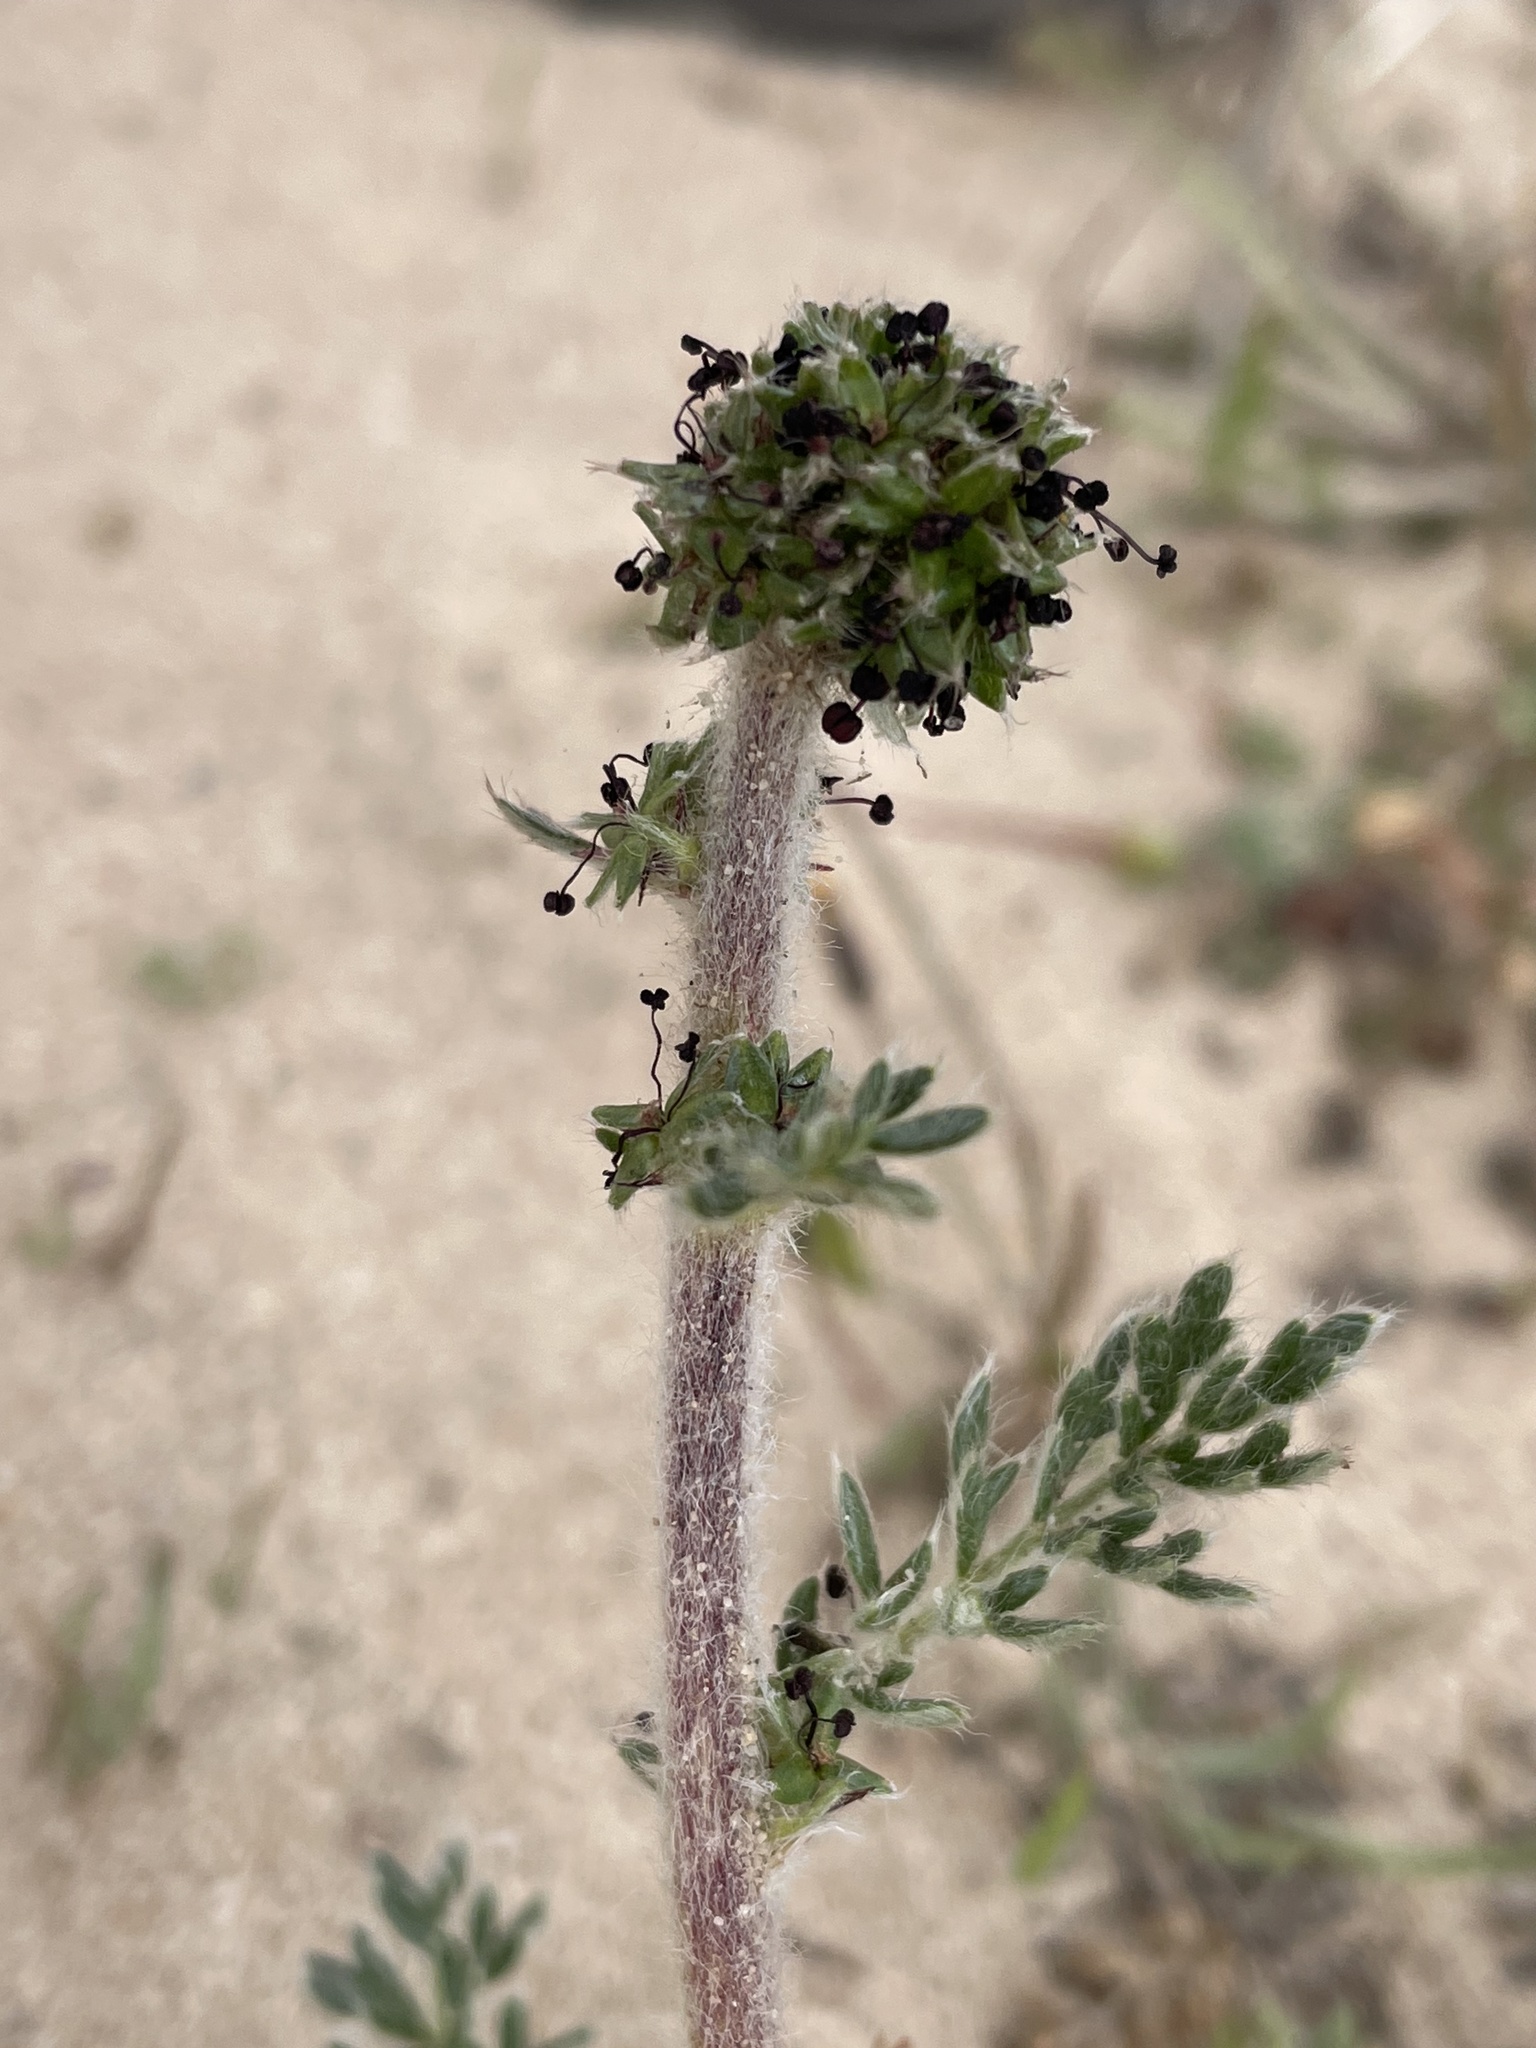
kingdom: Plantae
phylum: Tracheophyta
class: Magnoliopsida
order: Rosales
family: Rosaceae
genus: Acaena
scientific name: Acaena pinnatifida
